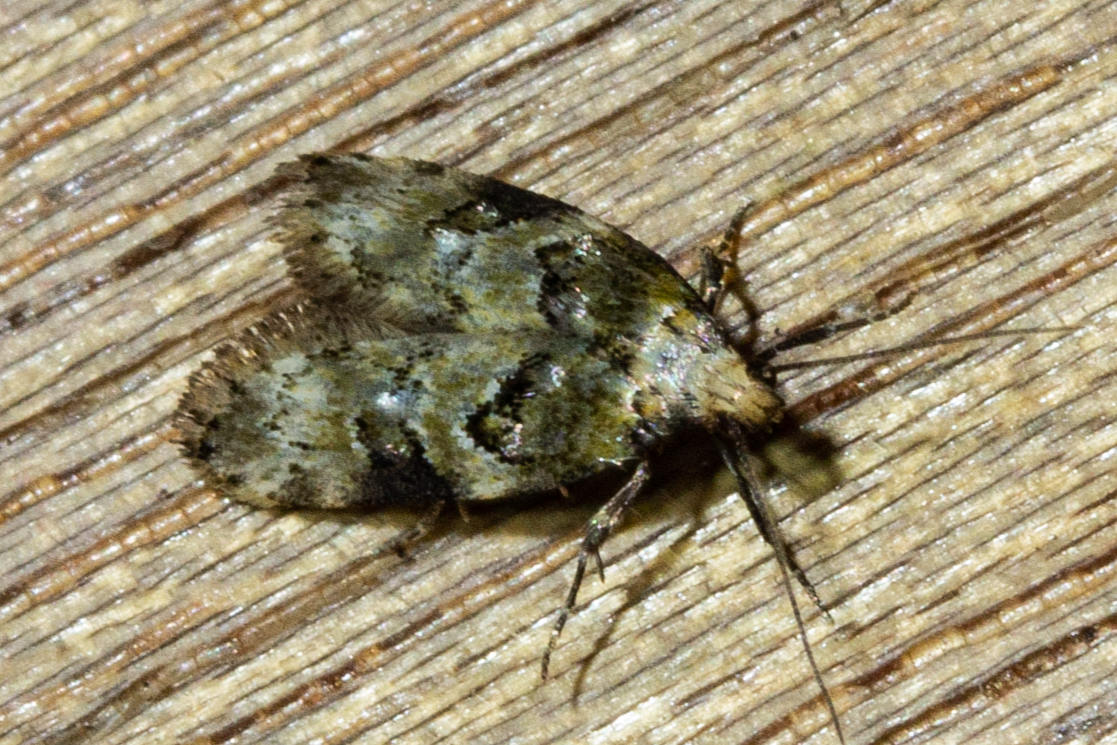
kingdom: Animalia
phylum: Arthropoda
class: Insecta
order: Lepidoptera
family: Oecophoridae
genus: Trachypepla
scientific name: Trachypepla protochlora
